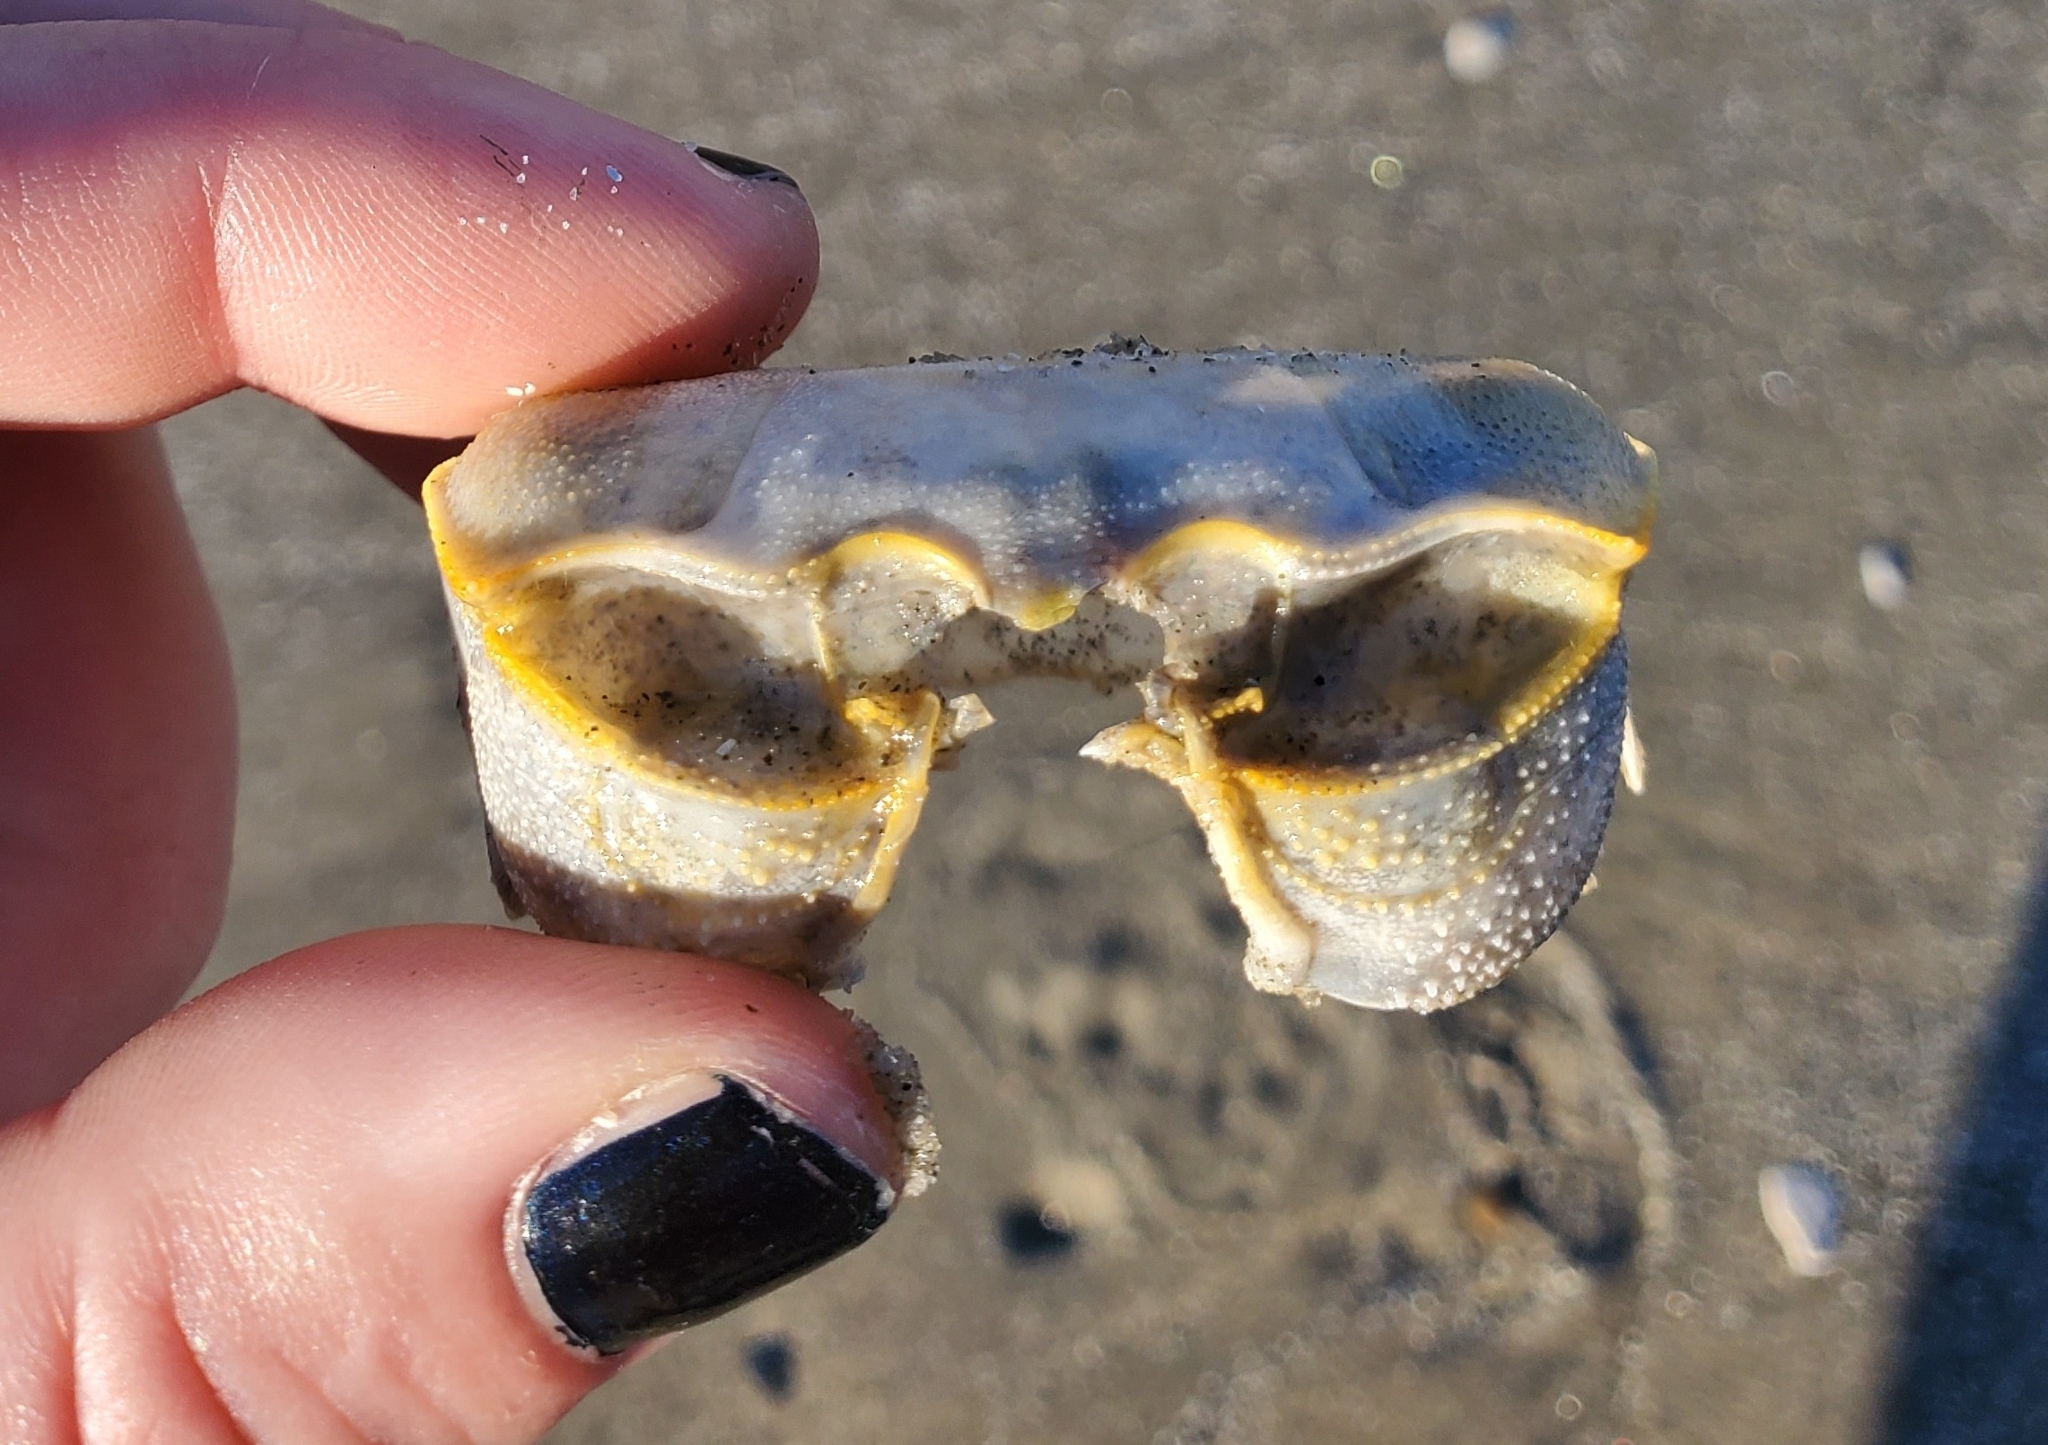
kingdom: Animalia
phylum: Arthropoda
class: Malacostraca
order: Decapoda
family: Ocypodidae
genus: Ocypode
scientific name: Ocypode quadrata
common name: Ghost crab
